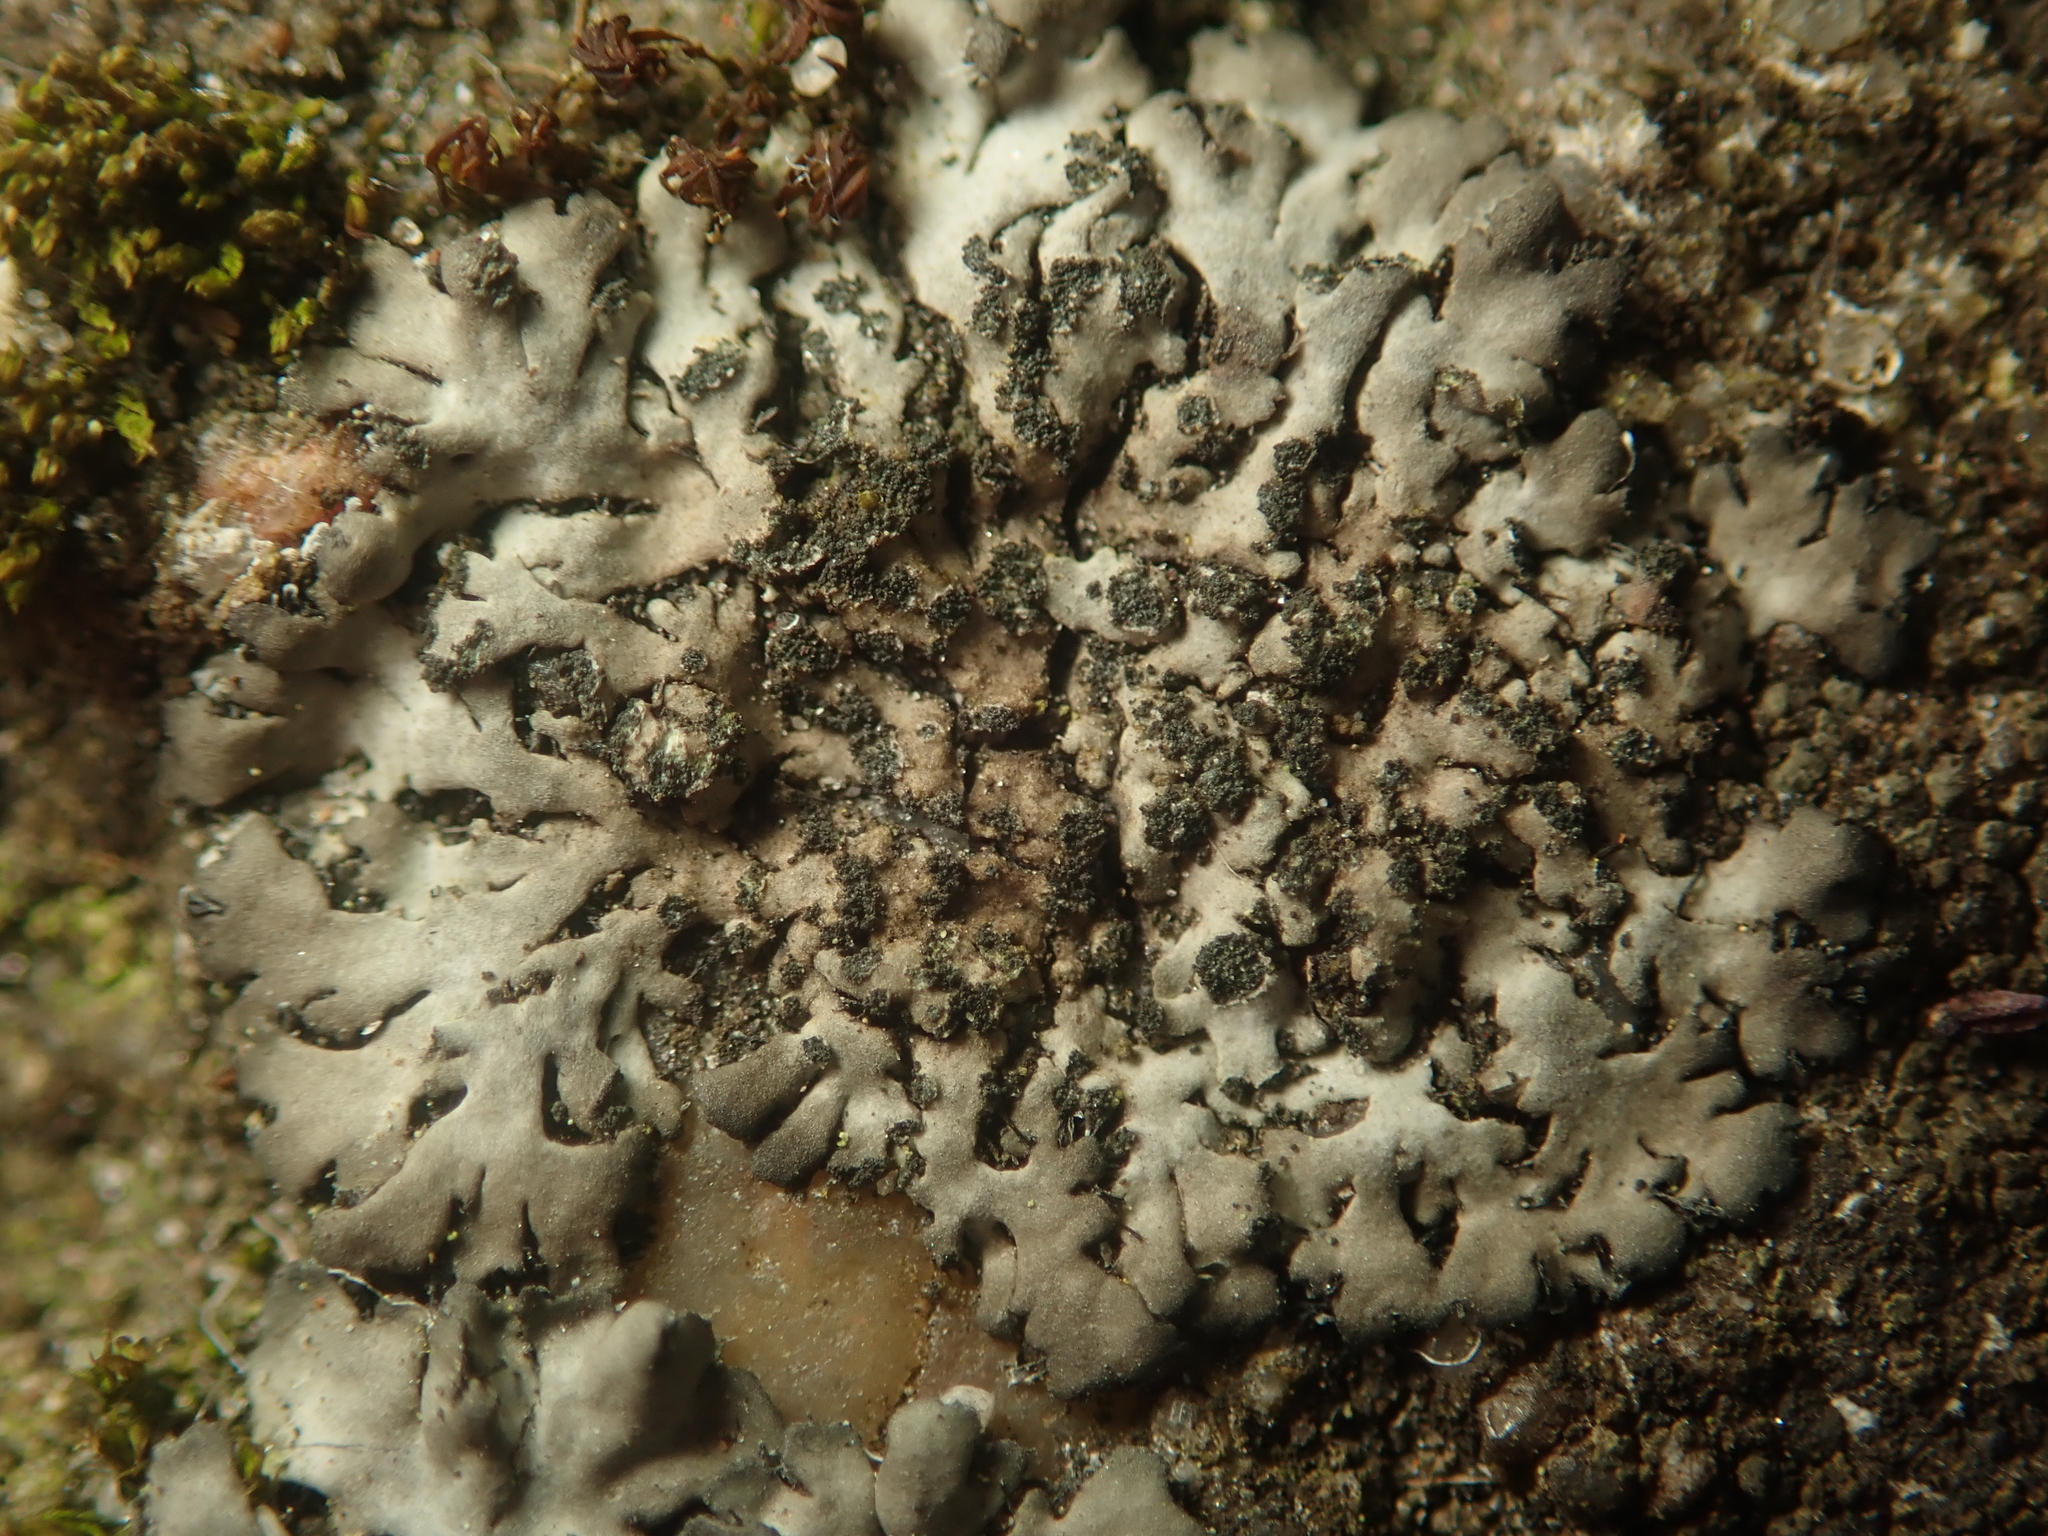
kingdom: Fungi
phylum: Ascomycota
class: Lecanoromycetes
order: Caliciales
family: Physciaceae
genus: Phaeophyscia
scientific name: Phaeophyscia orbicularis
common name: Mealy shadow lichen
